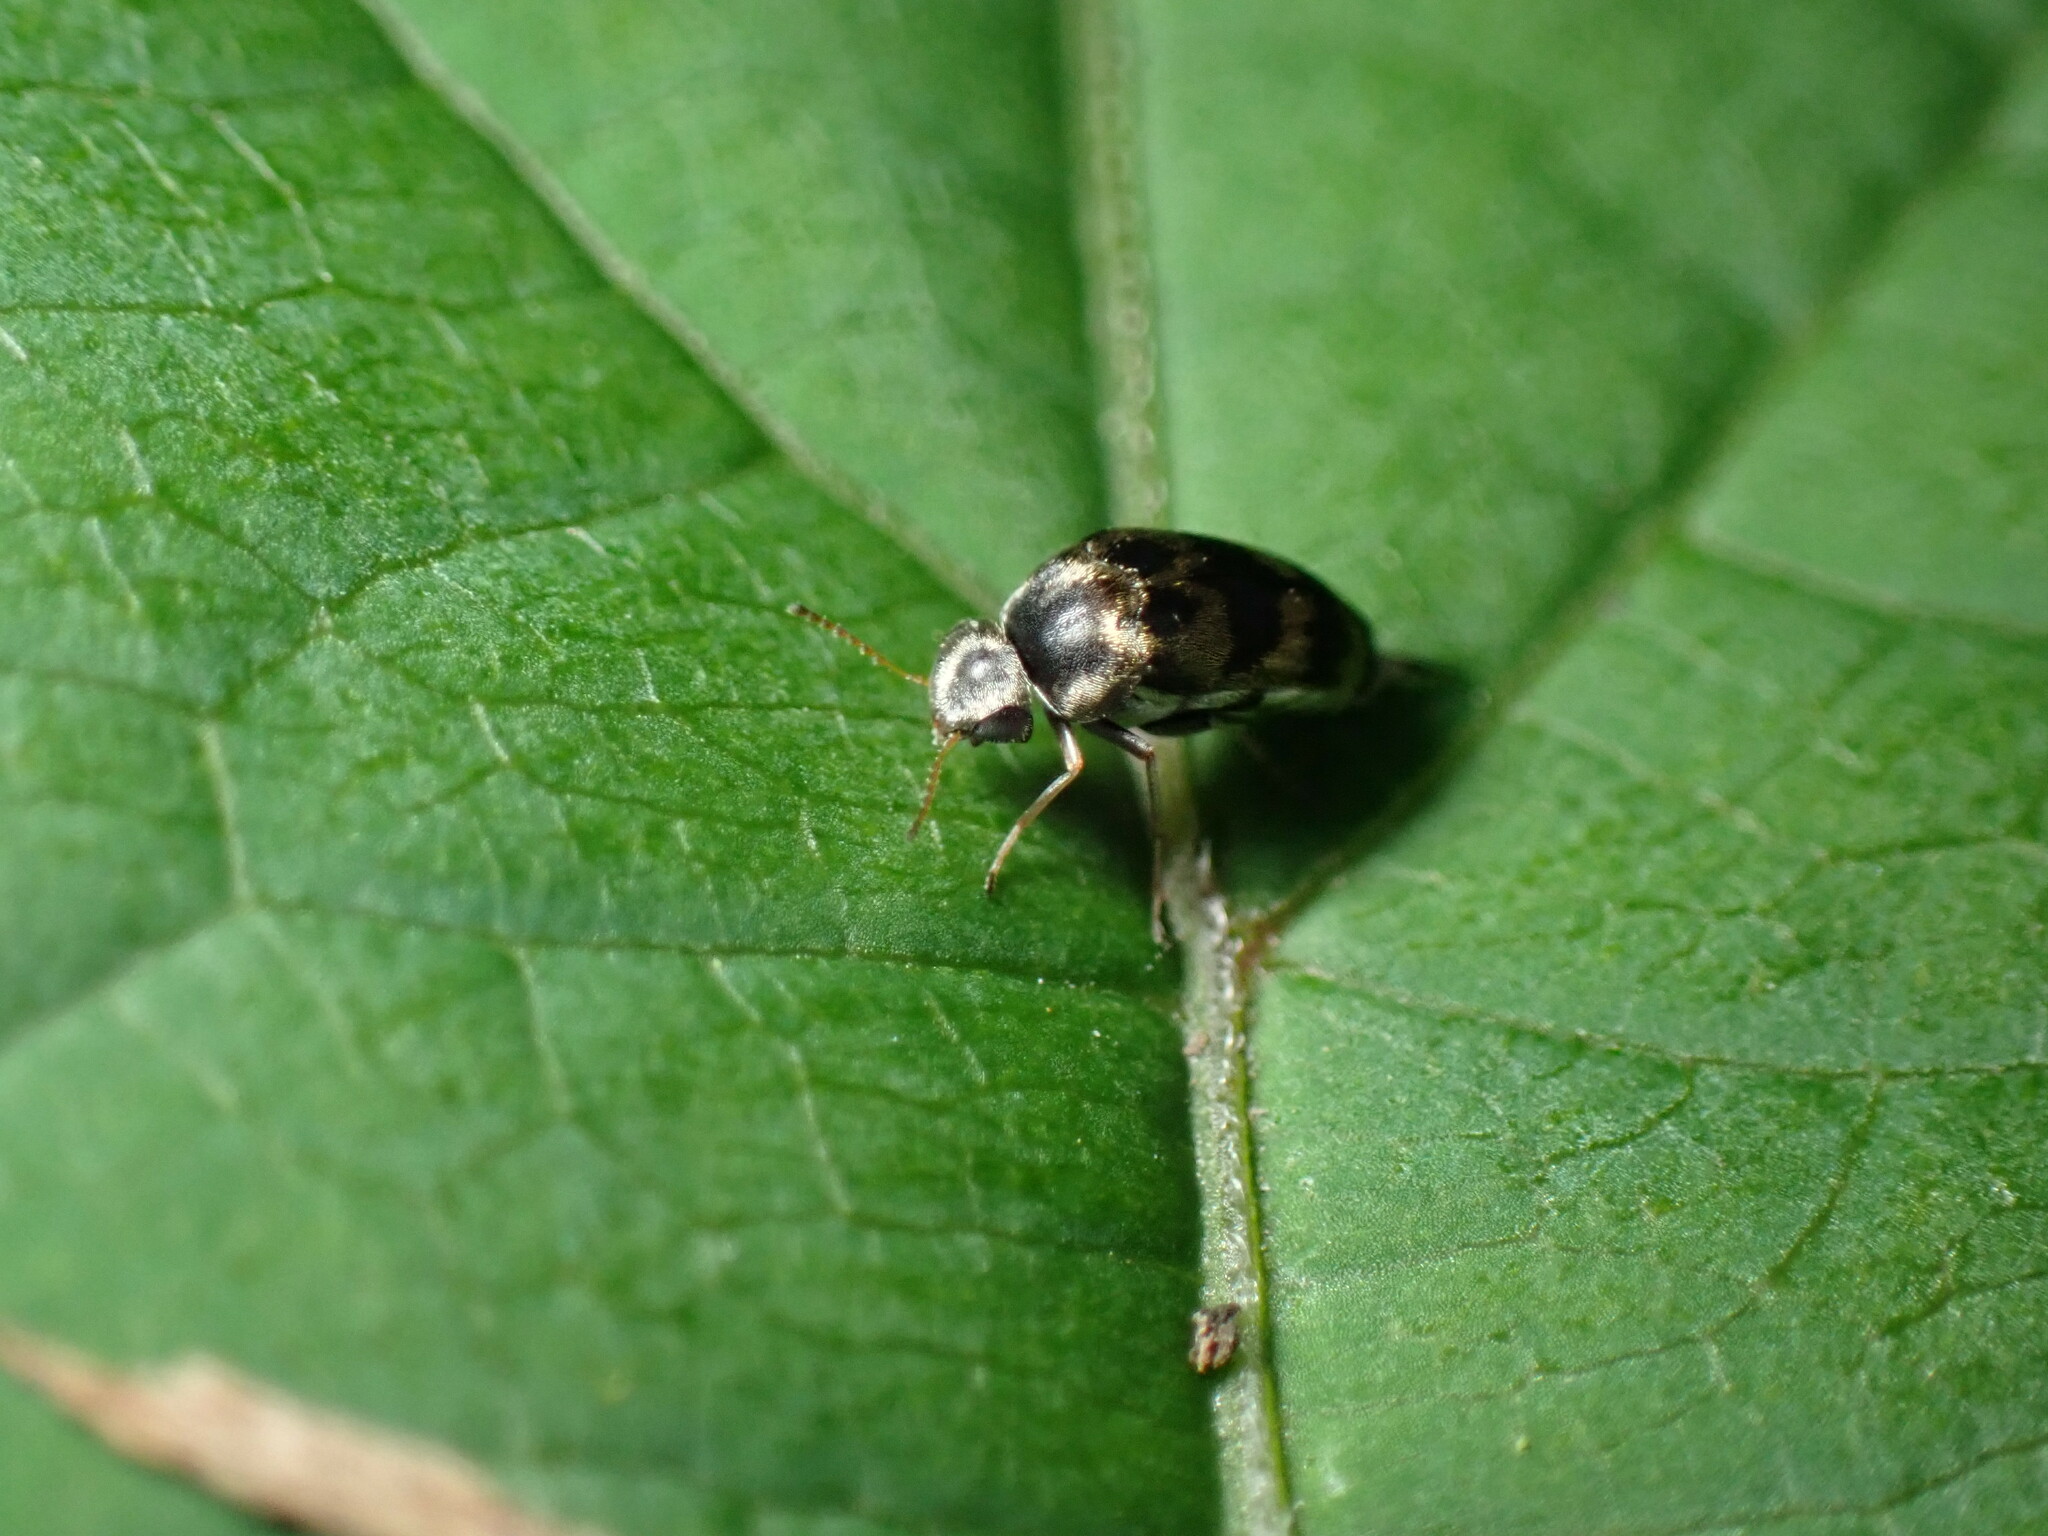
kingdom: Animalia
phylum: Arthropoda
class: Insecta
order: Coleoptera
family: Mordellidae
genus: Paramordellaria
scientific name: Paramordellaria triloba
